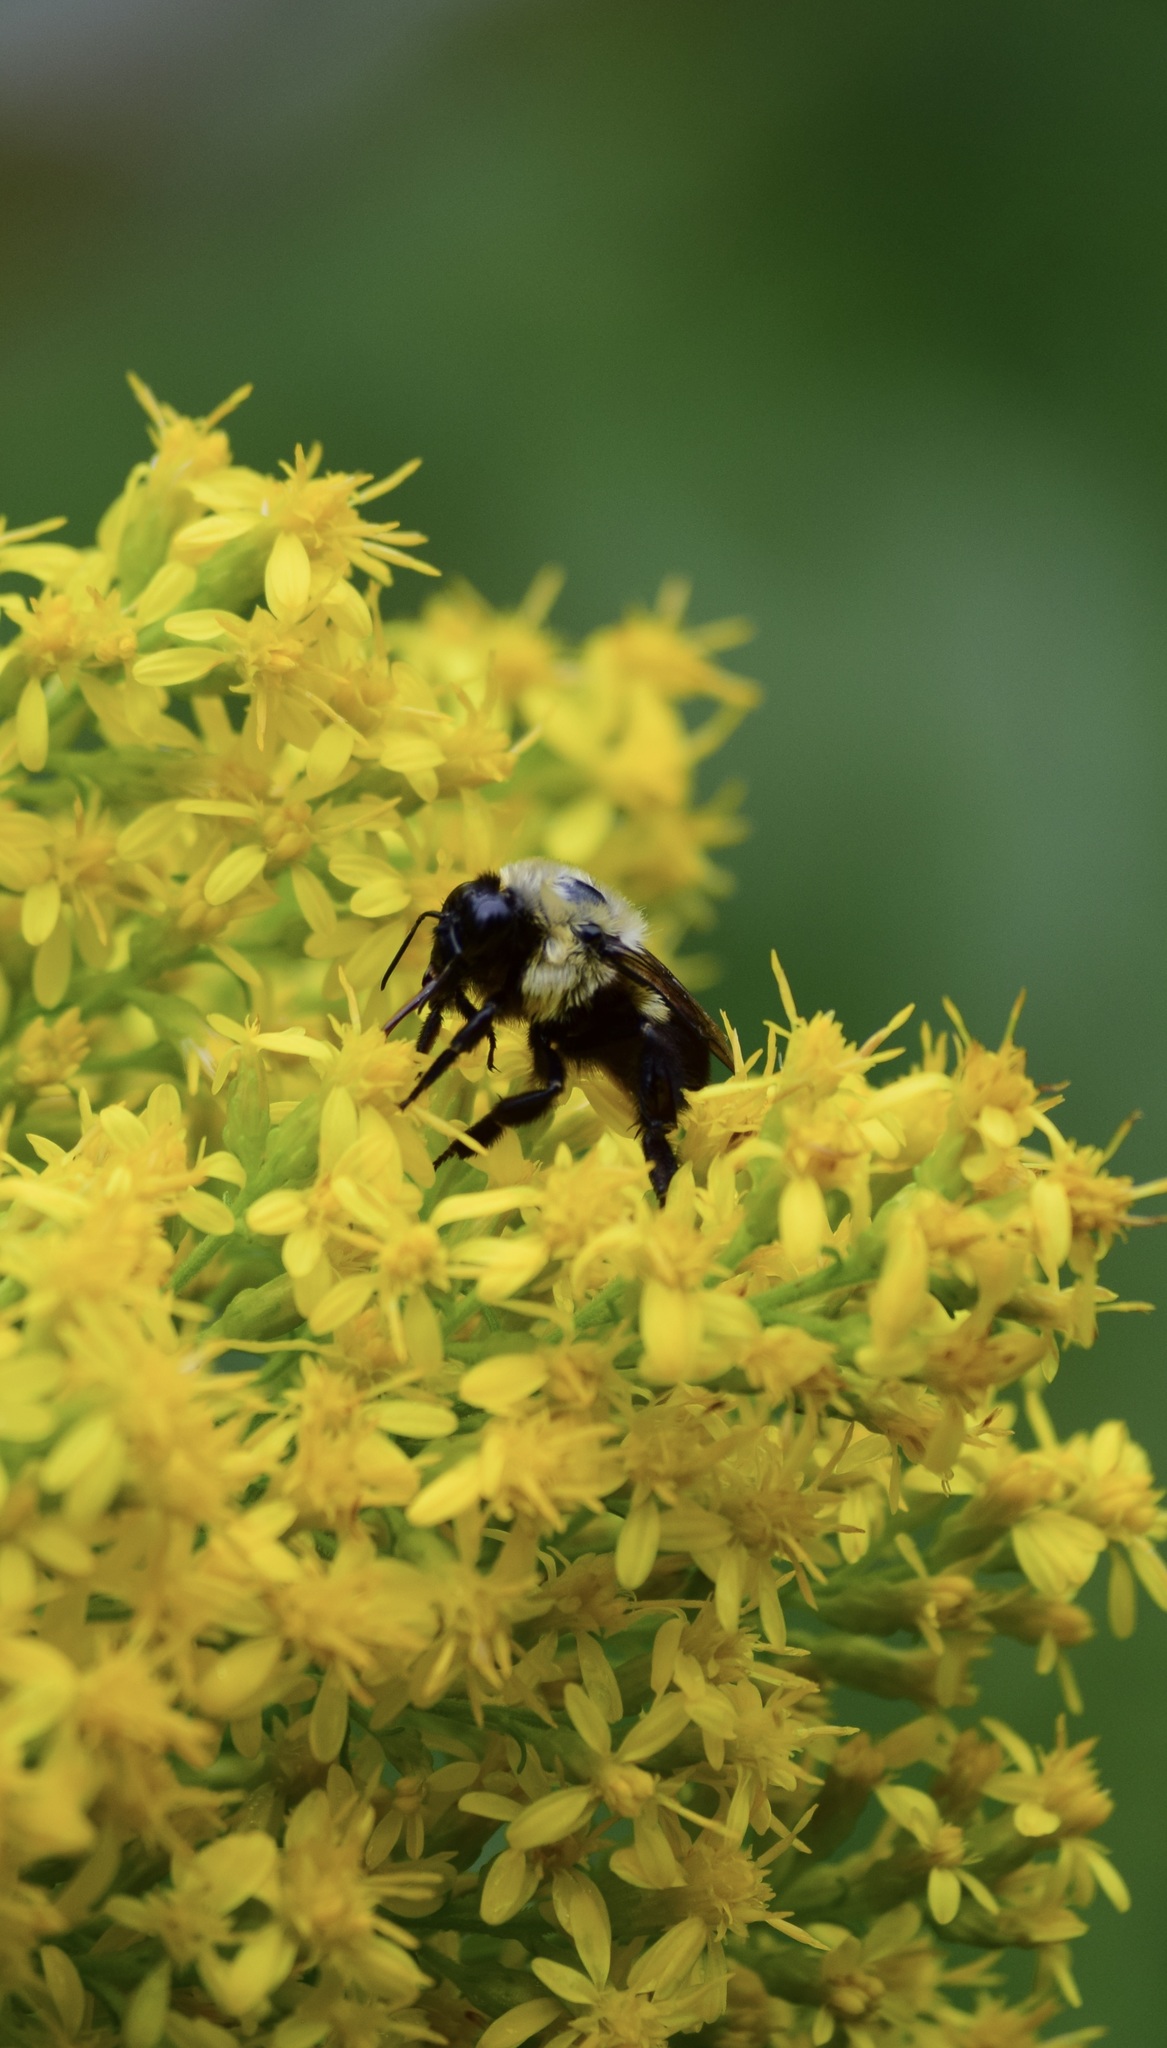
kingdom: Animalia
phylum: Arthropoda
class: Insecta
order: Hymenoptera
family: Apidae
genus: Bombus
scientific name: Bombus griseocollis
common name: Brown-belted bumble bee
